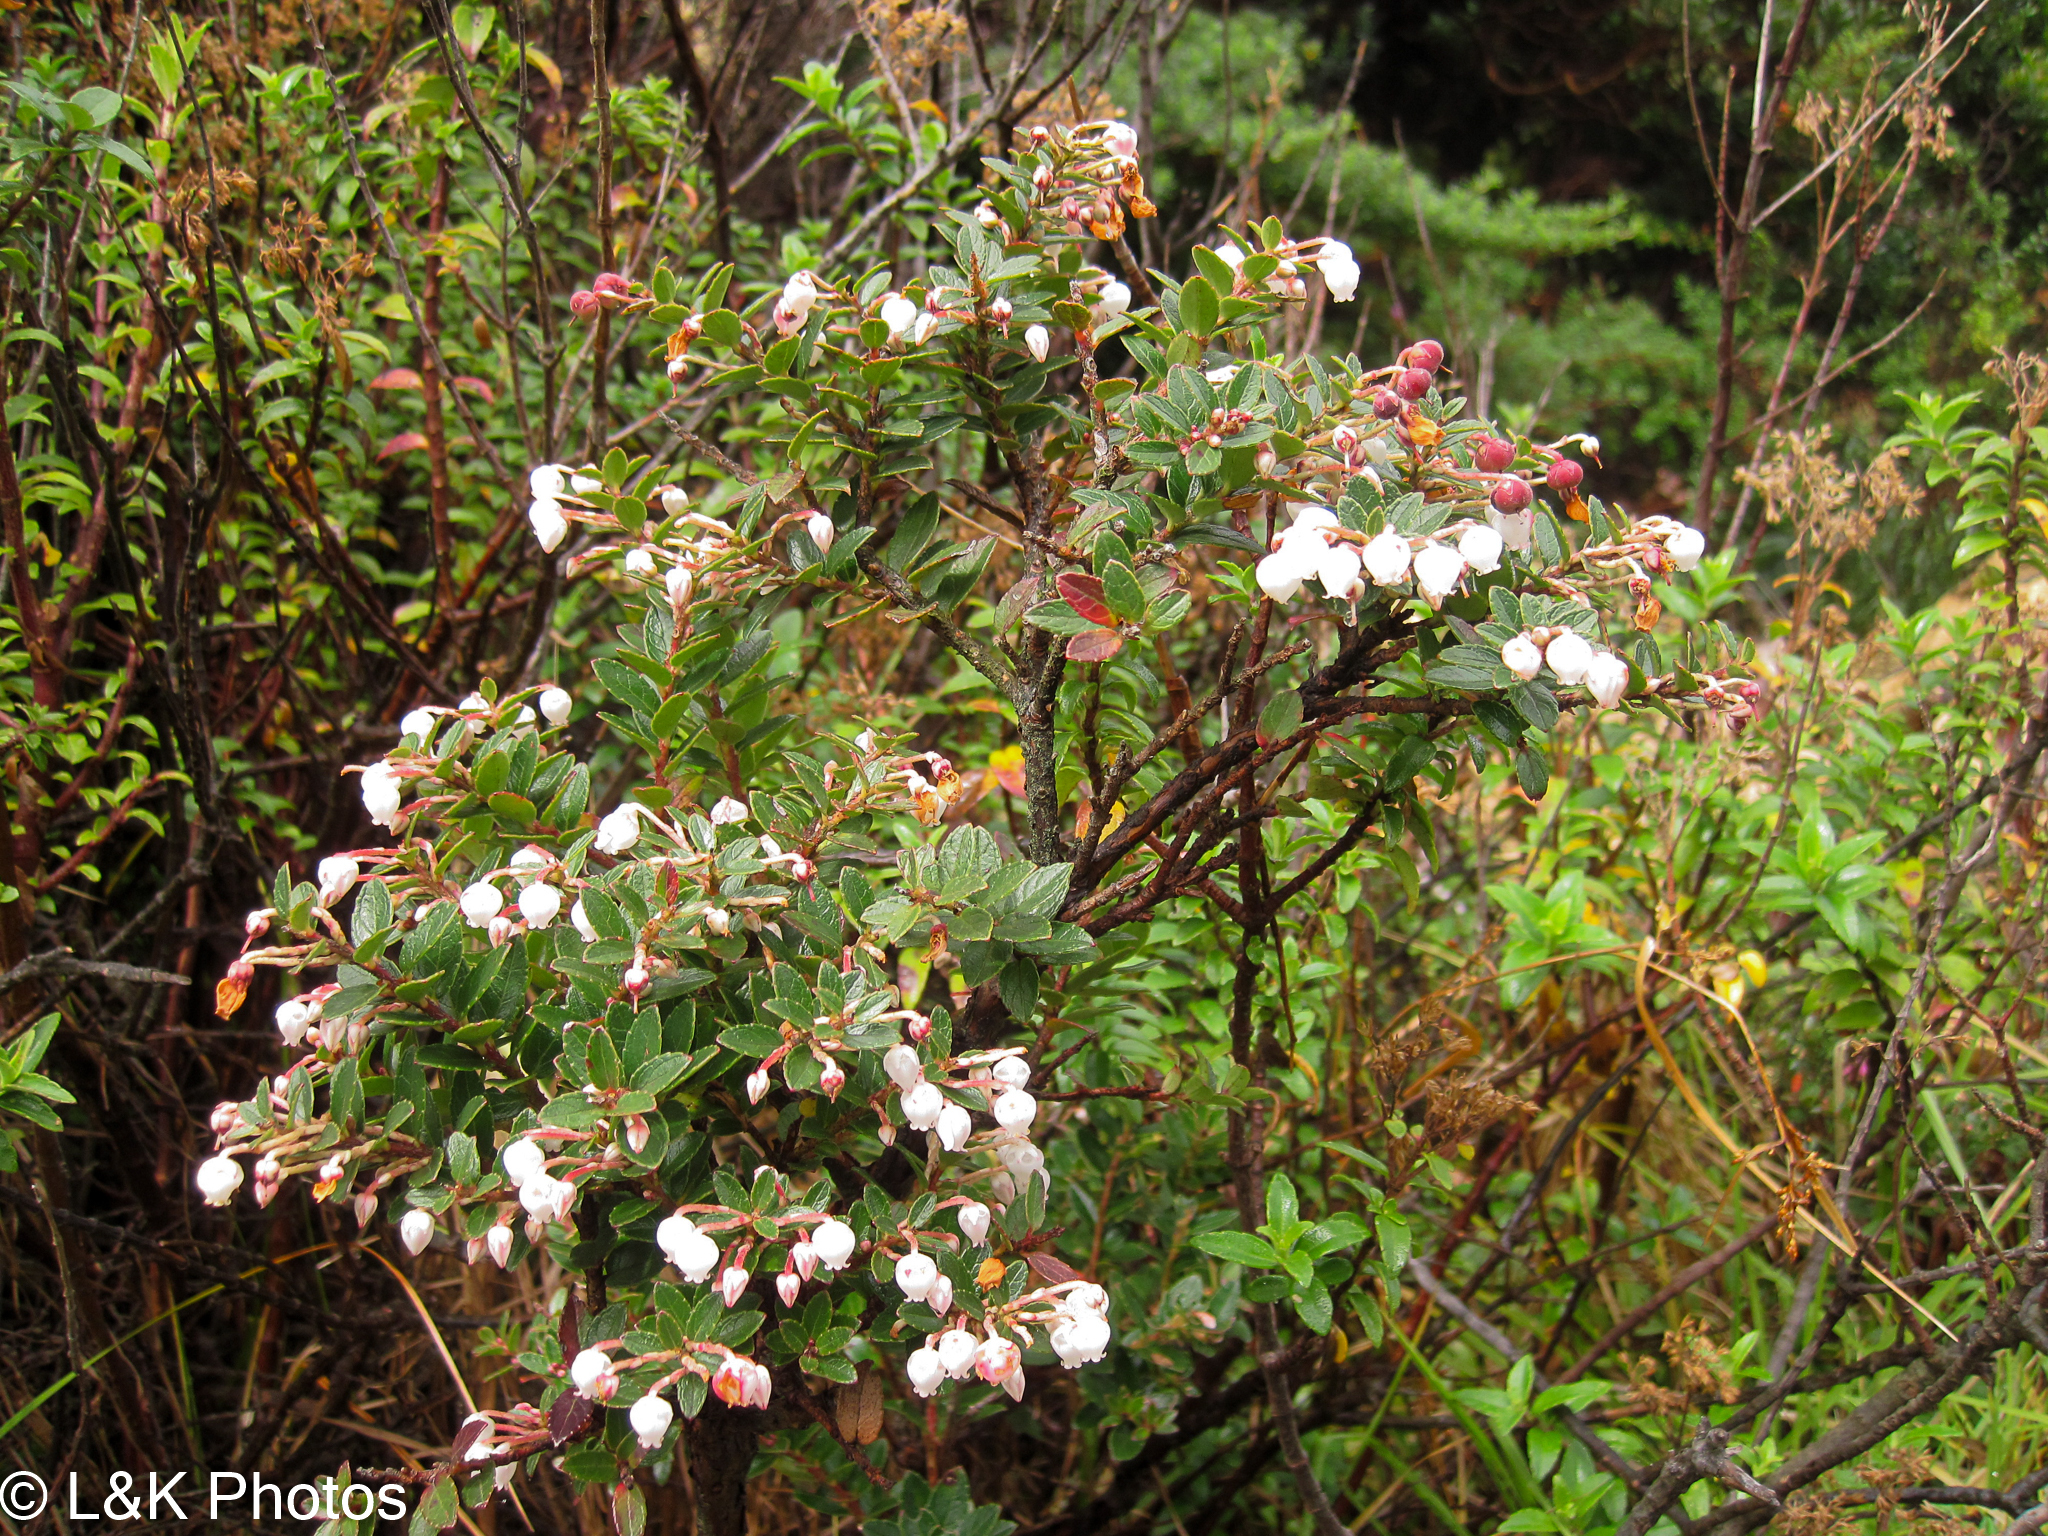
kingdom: Plantae
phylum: Tracheophyta
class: Magnoliopsida
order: Ericales
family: Ericaceae
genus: Gaultheria
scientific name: Gaultheria myrsinoides
